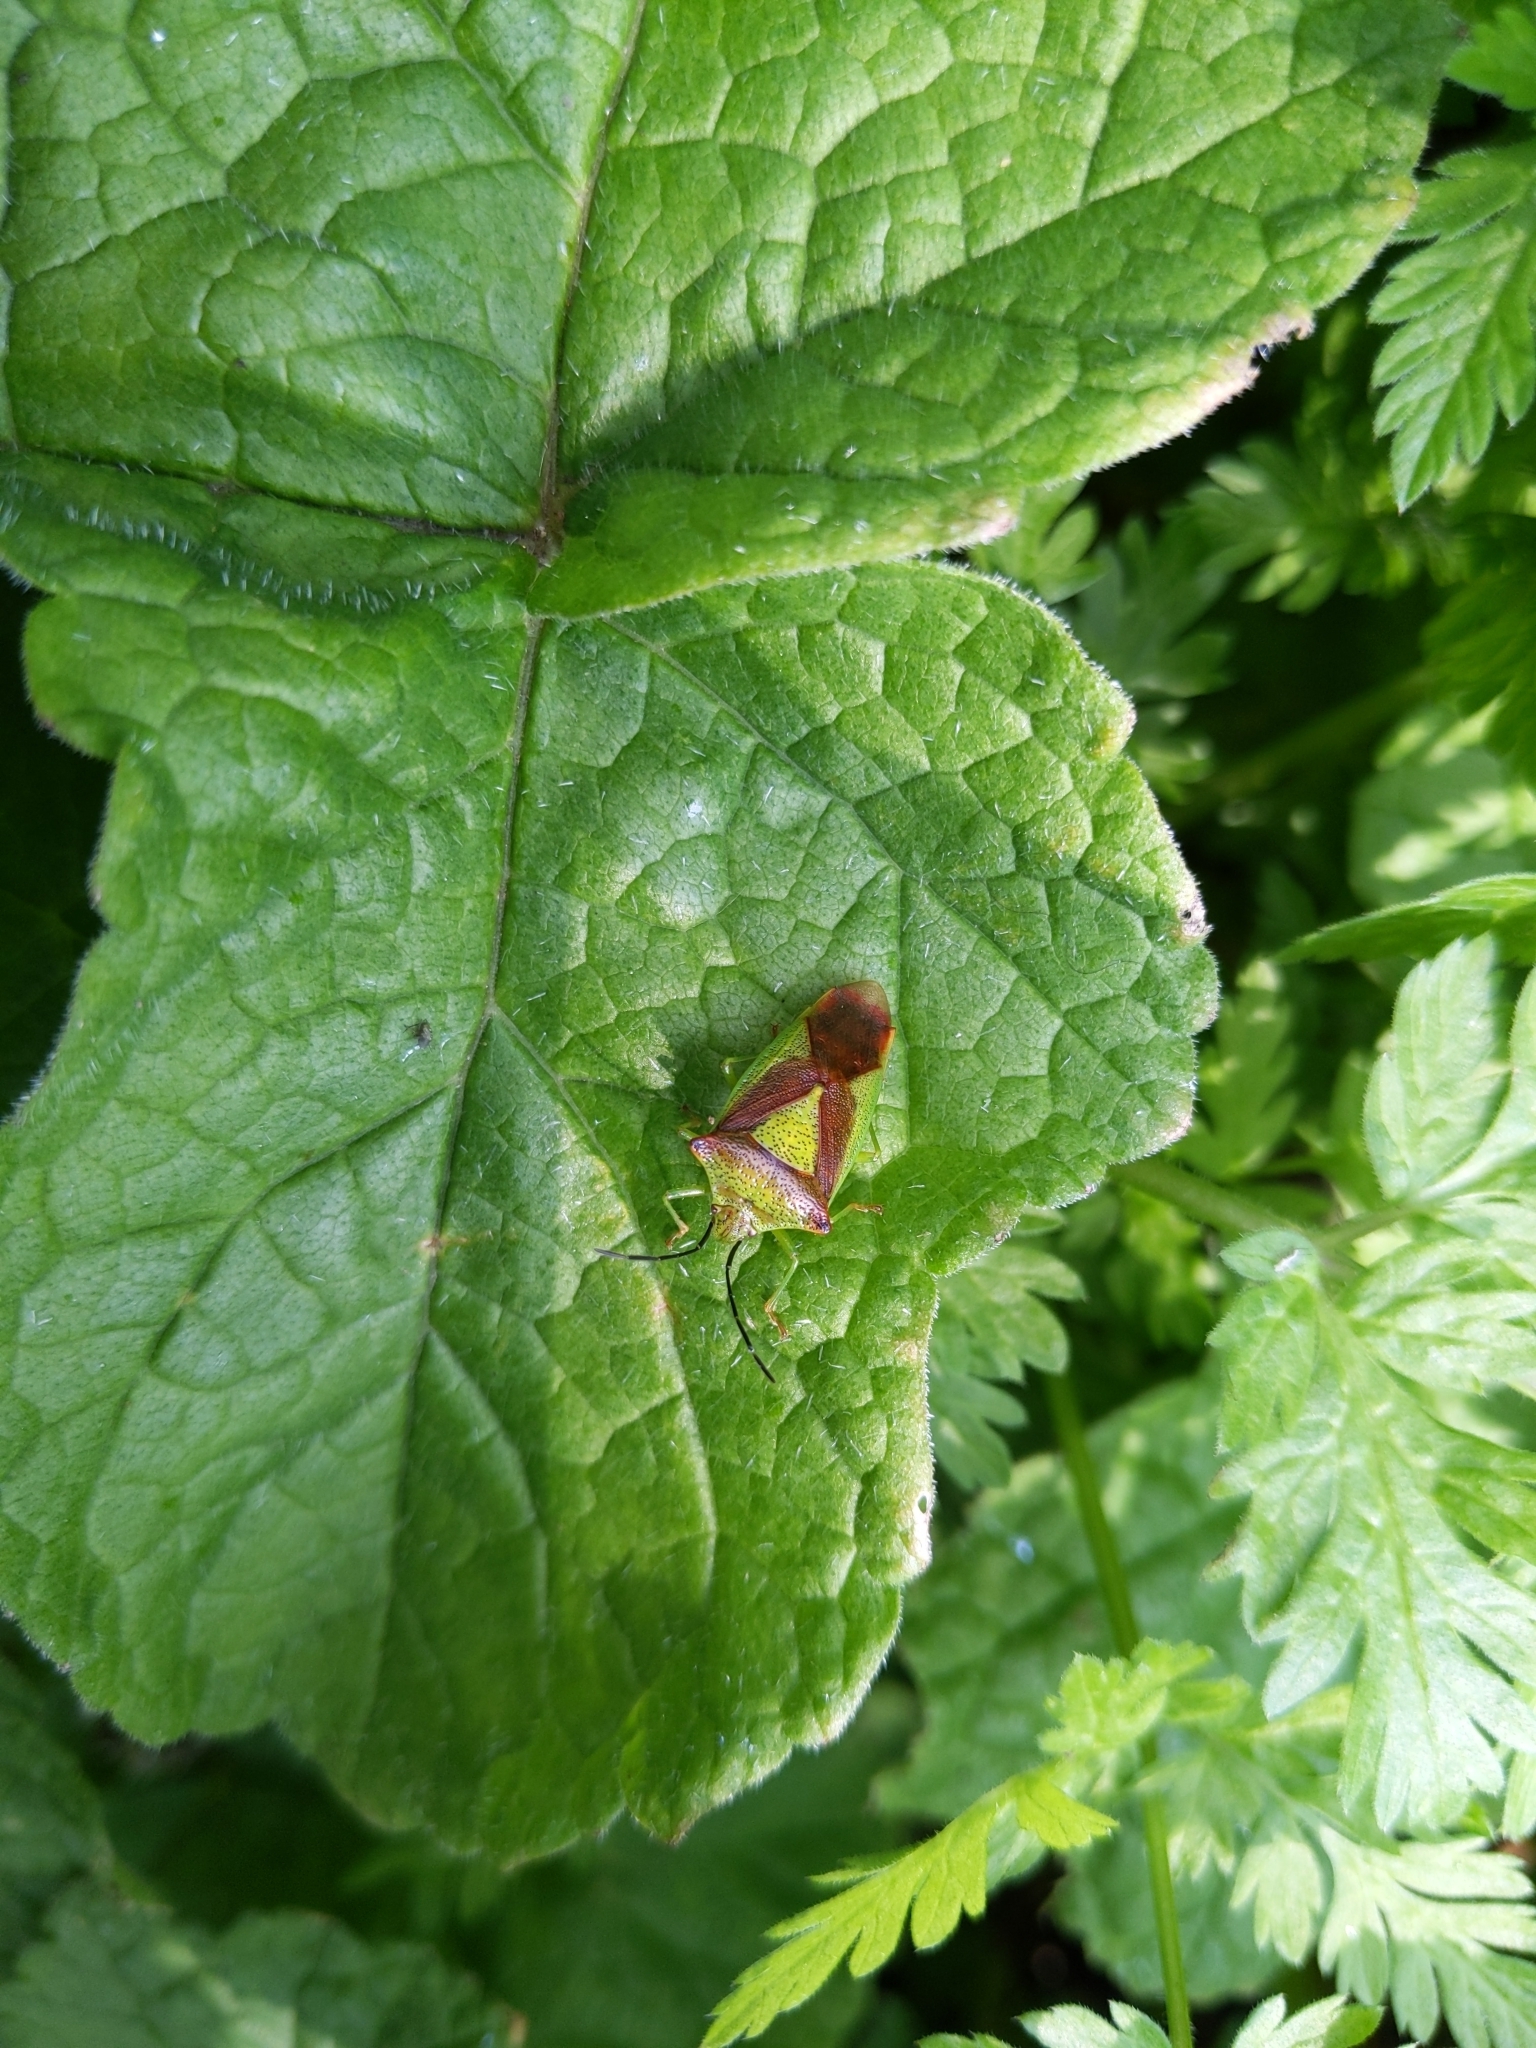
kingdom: Animalia
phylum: Arthropoda
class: Insecta
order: Hemiptera
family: Acanthosomatidae
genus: Acanthosoma
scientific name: Acanthosoma haemorrhoidale
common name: Hawthorn shieldbug
